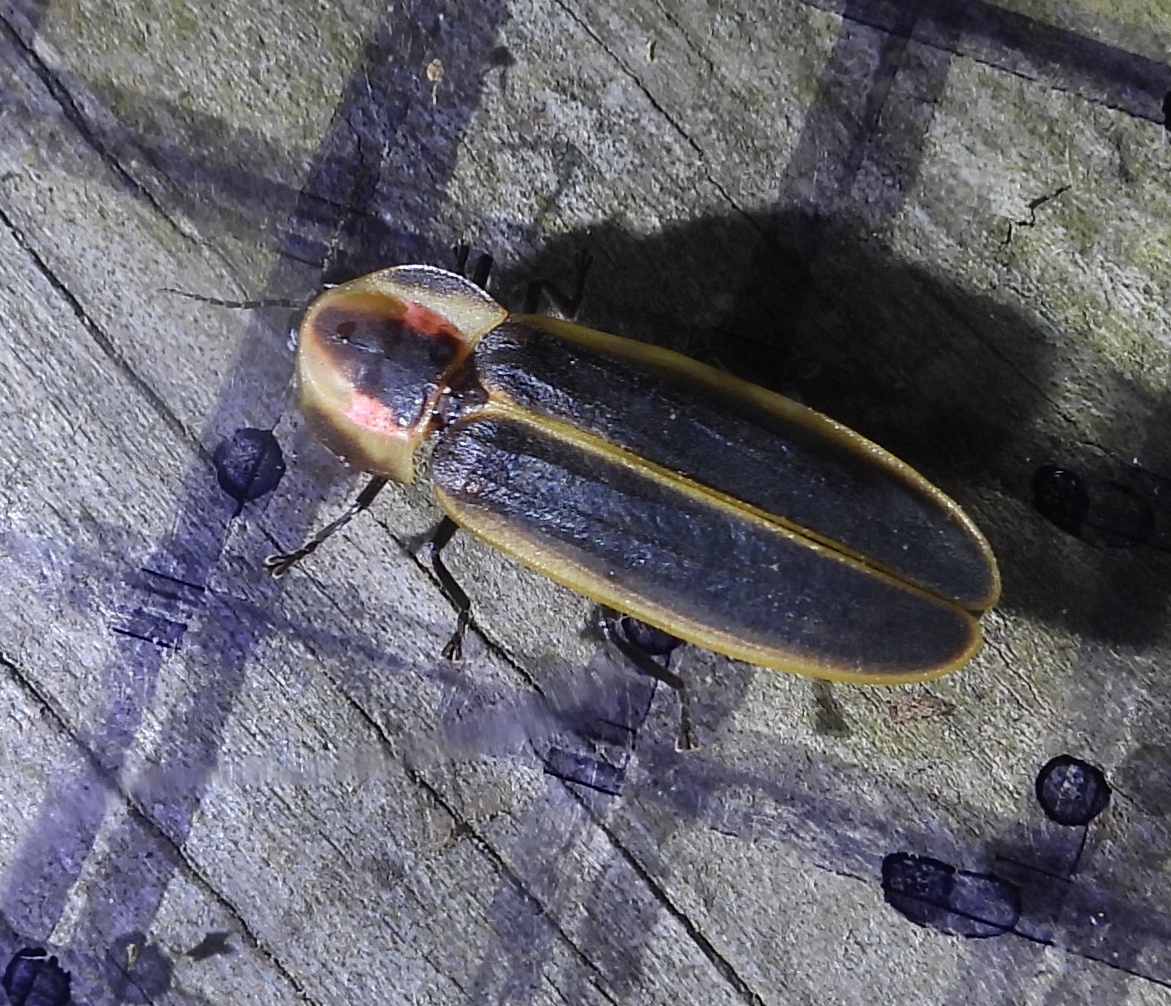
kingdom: Animalia
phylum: Arthropoda
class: Insecta
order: Coleoptera
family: Lampyridae
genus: Pyractomena
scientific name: Pyractomena borealis
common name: Northern firefly
